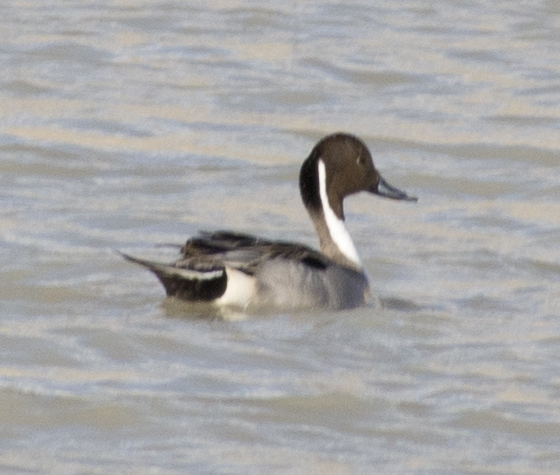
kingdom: Animalia
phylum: Chordata
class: Aves
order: Anseriformes
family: Anatidae
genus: Anas
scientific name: Anas acuta
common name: Northern pintail
